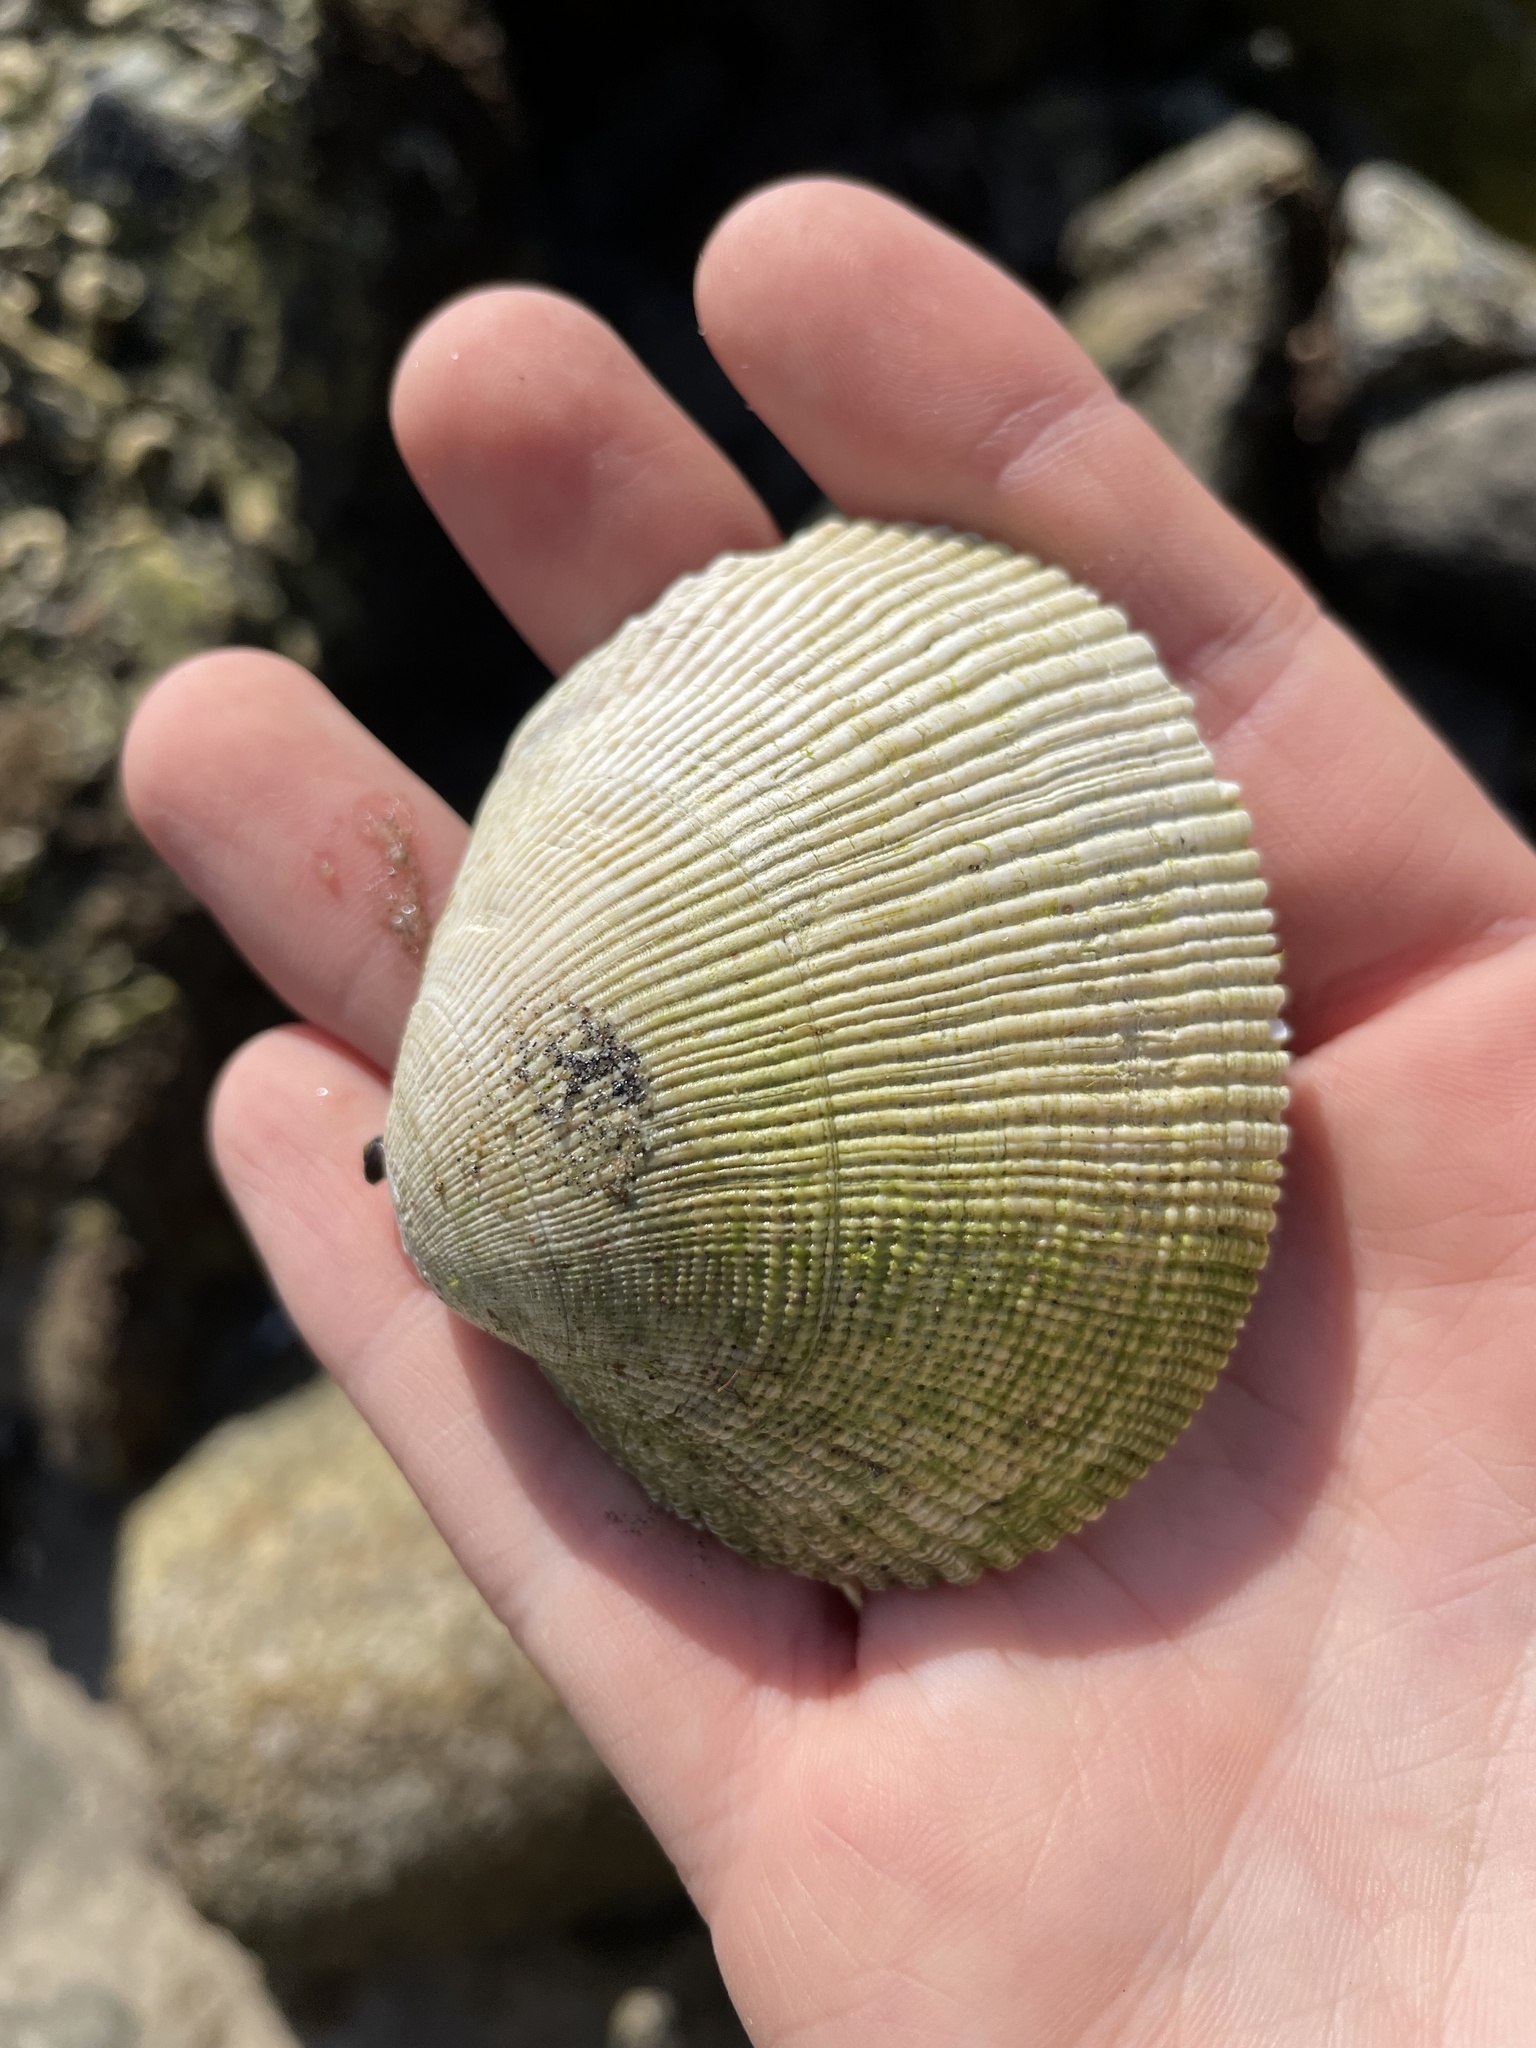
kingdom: Animalia
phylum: Mollusca
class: Bivalvia
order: Venerida
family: Veneridae
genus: Leukoma
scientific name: Leukoma staminea
